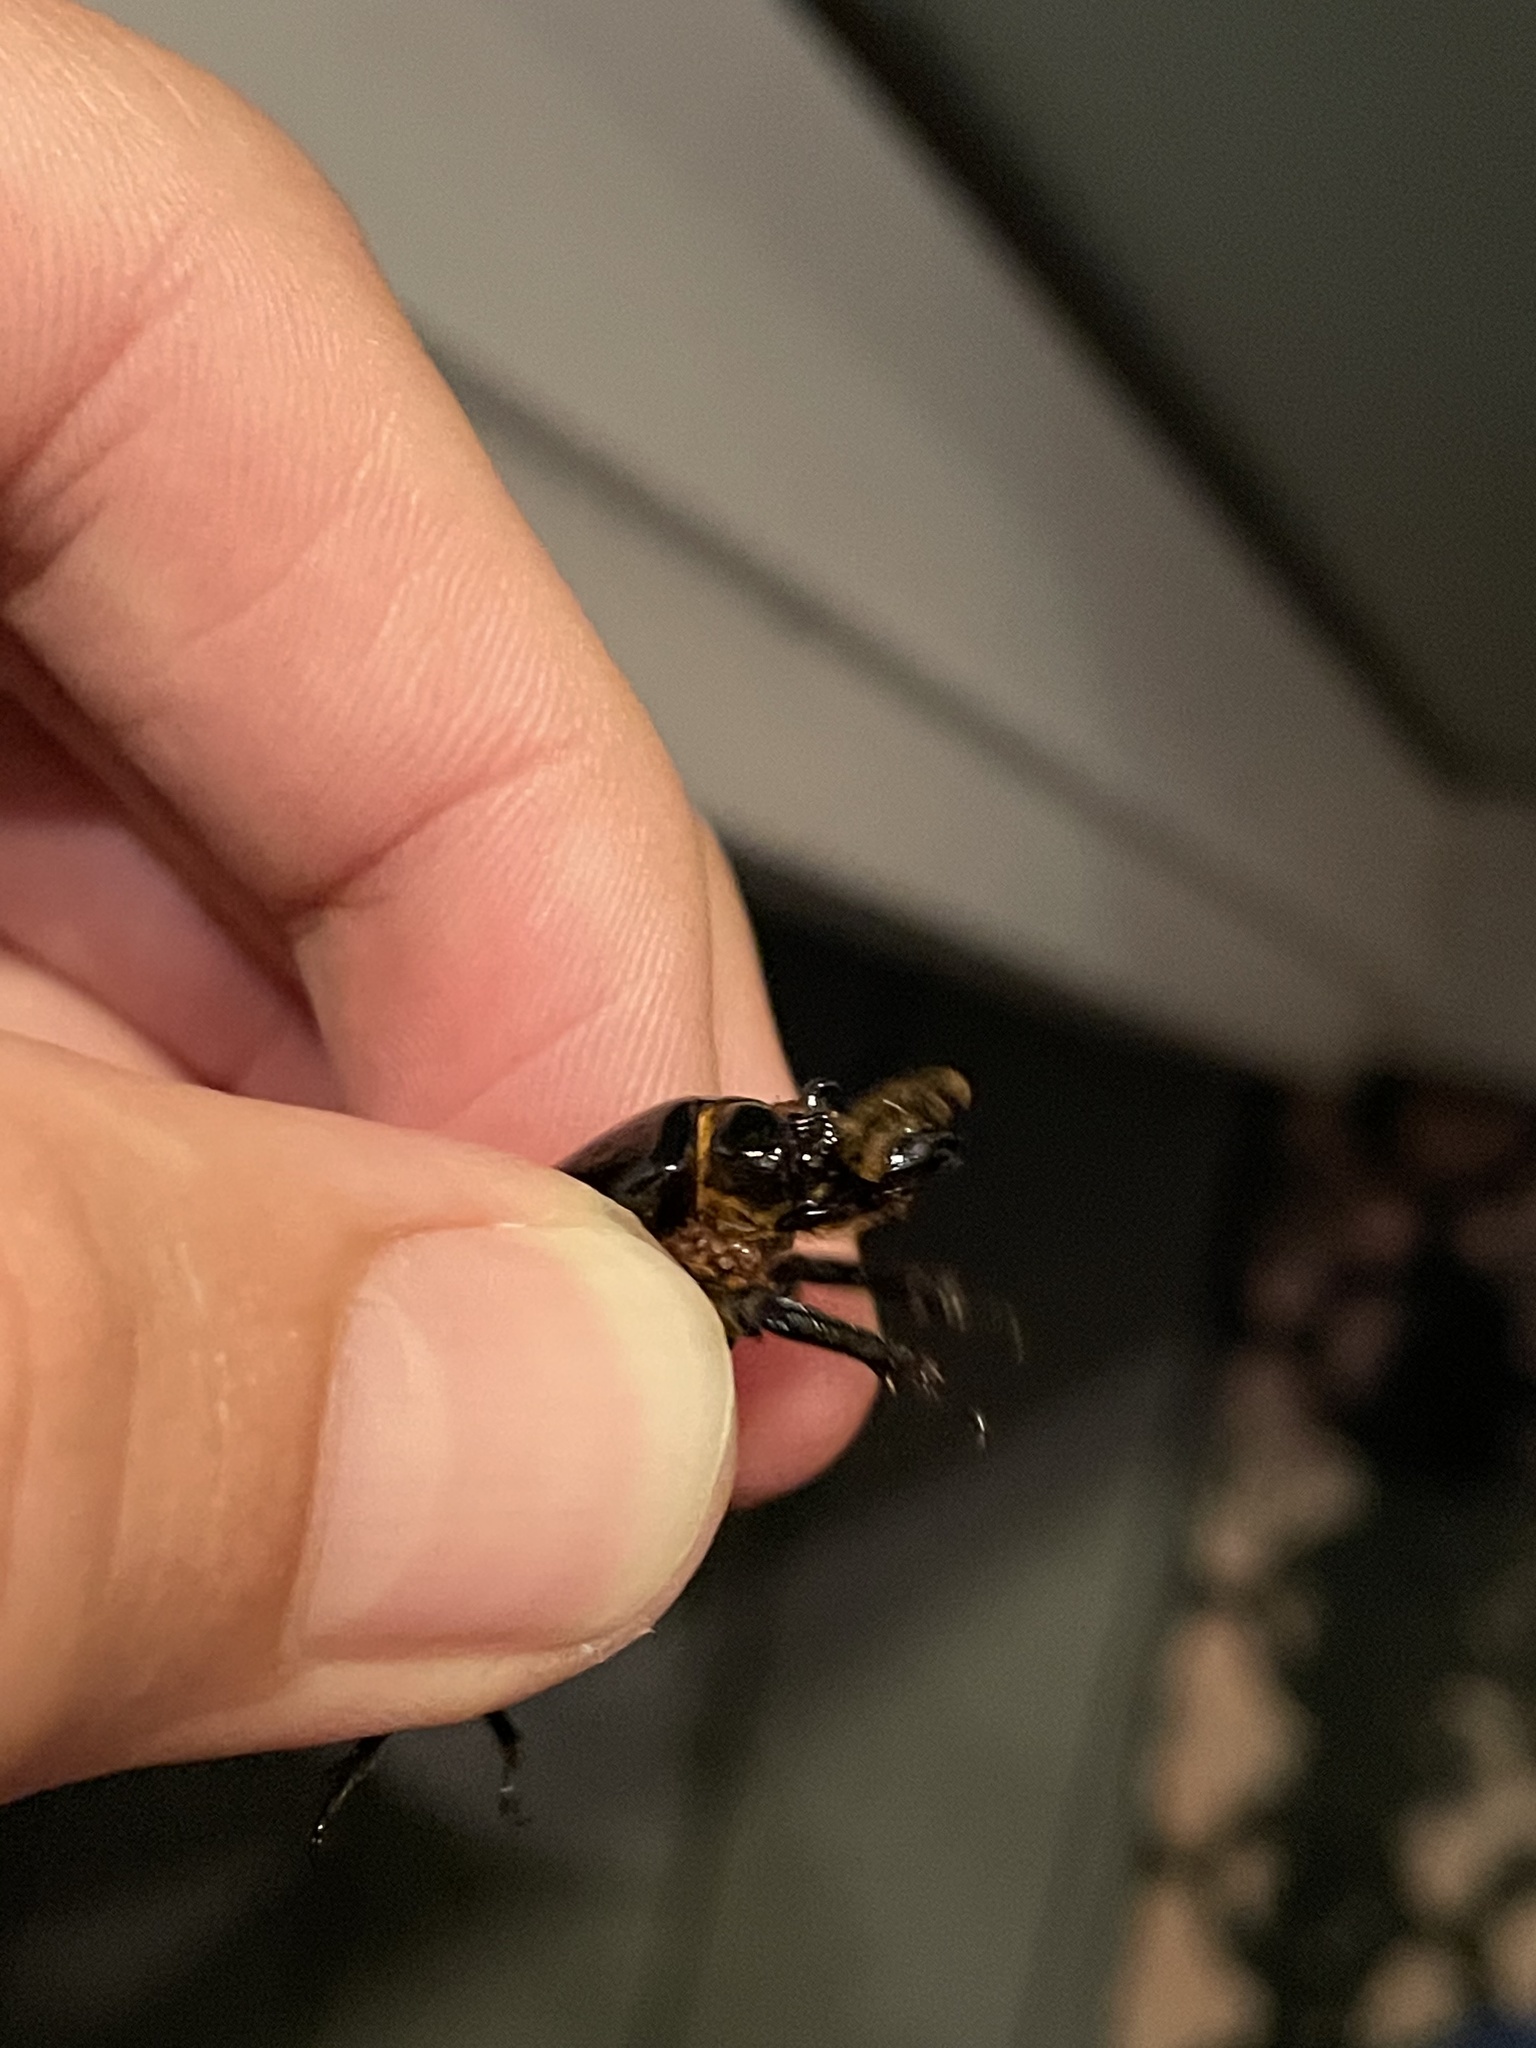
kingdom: Animalia
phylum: Arthropoda
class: Insecta
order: Coleoptera
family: Passalidae
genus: Odontotaenius
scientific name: Odontotaenius disjunctus
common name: Patent leather beetle
